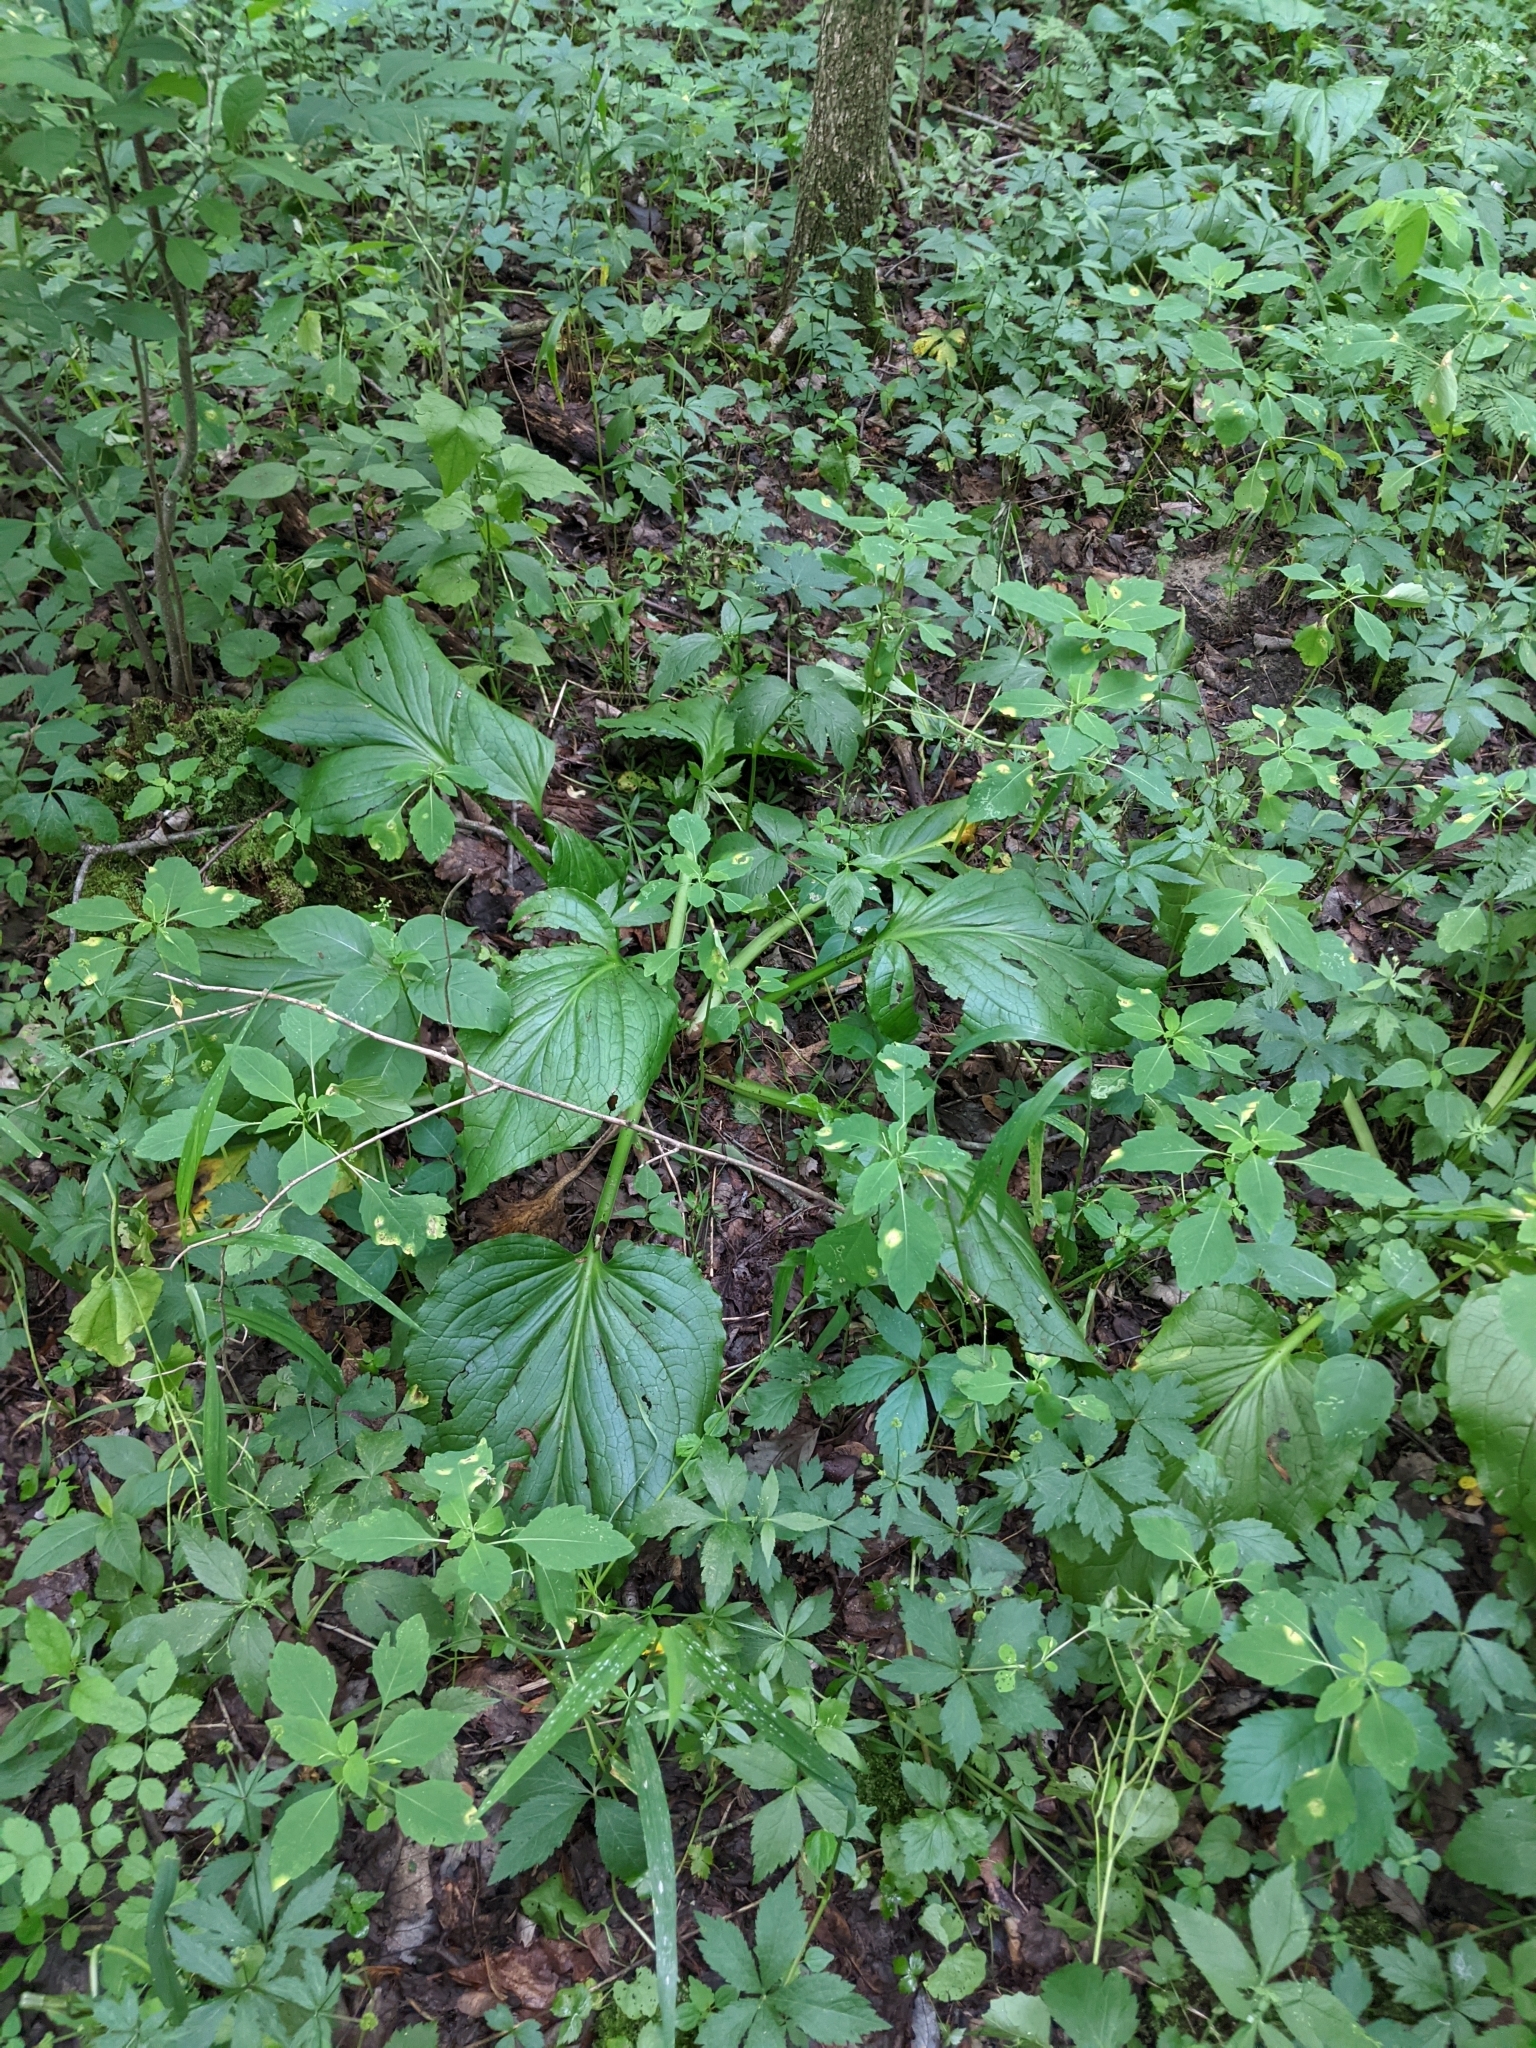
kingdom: Plantae
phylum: Tracheophyta
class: Liliopsida
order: Alismatales
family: Araceae
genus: Symplocarpus
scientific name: Symplocarpus foetidus
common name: Eastern skunk cabbage
